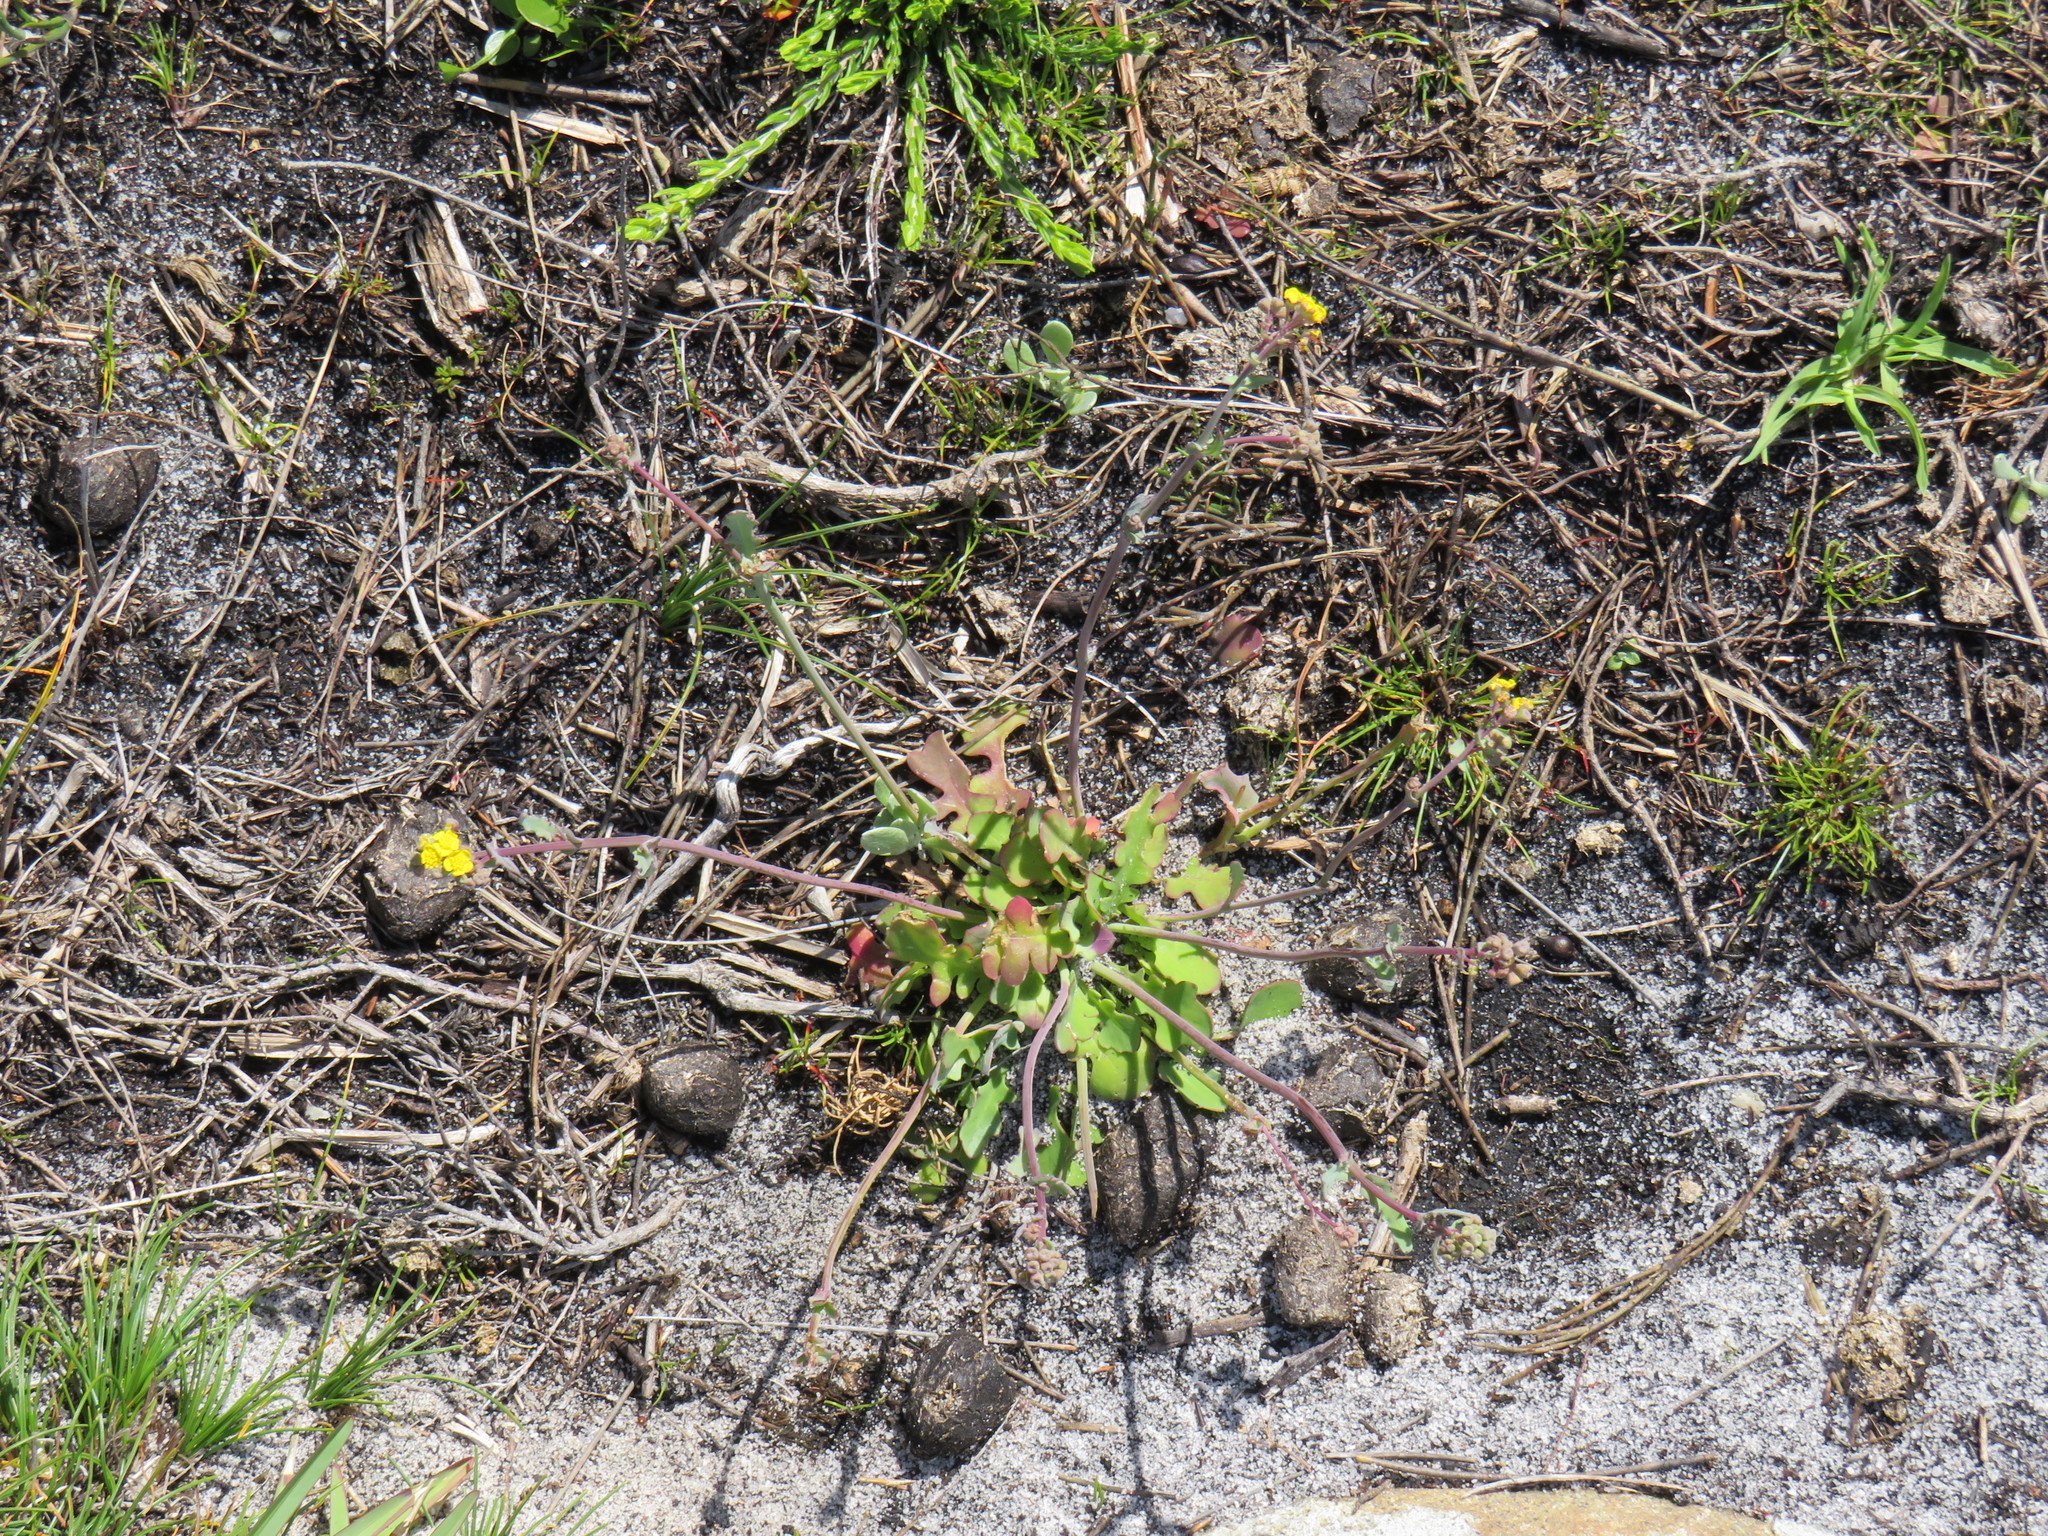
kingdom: Plantae
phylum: Tracheophyta
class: Magnoliopsida
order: Asterales
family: Asteraceae
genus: Gymnodiscus
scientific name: Gymnodiscus capillaris
